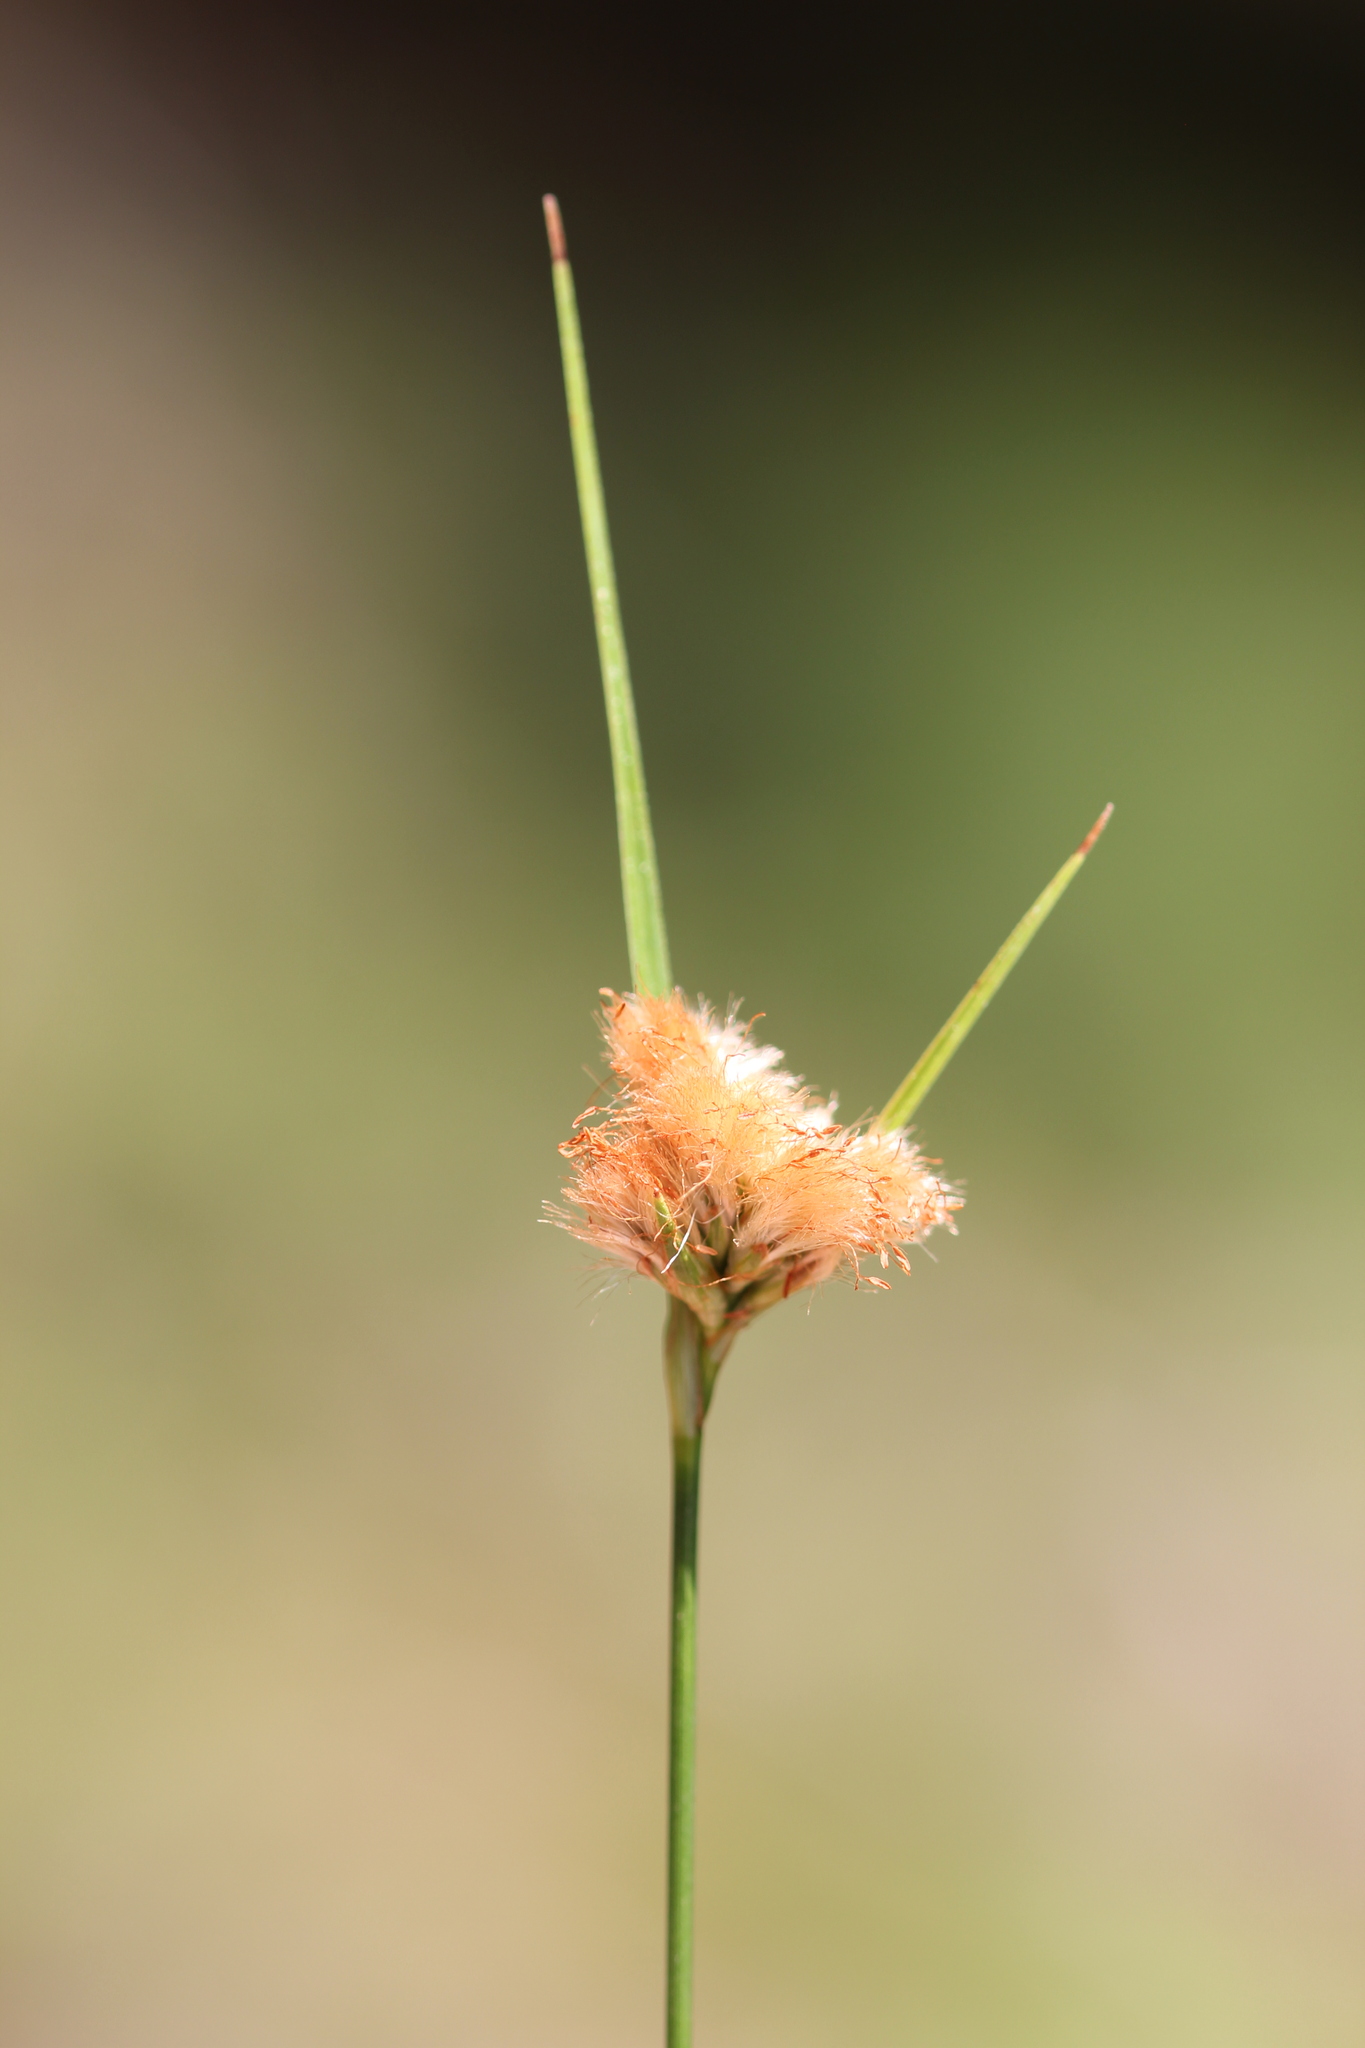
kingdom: Plantae
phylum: Tracheophyta
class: Liliopsida
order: Poales
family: Cyperaceae
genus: Eriophorum
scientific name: Eriophorum virginicum
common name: Tawny cottongrass
